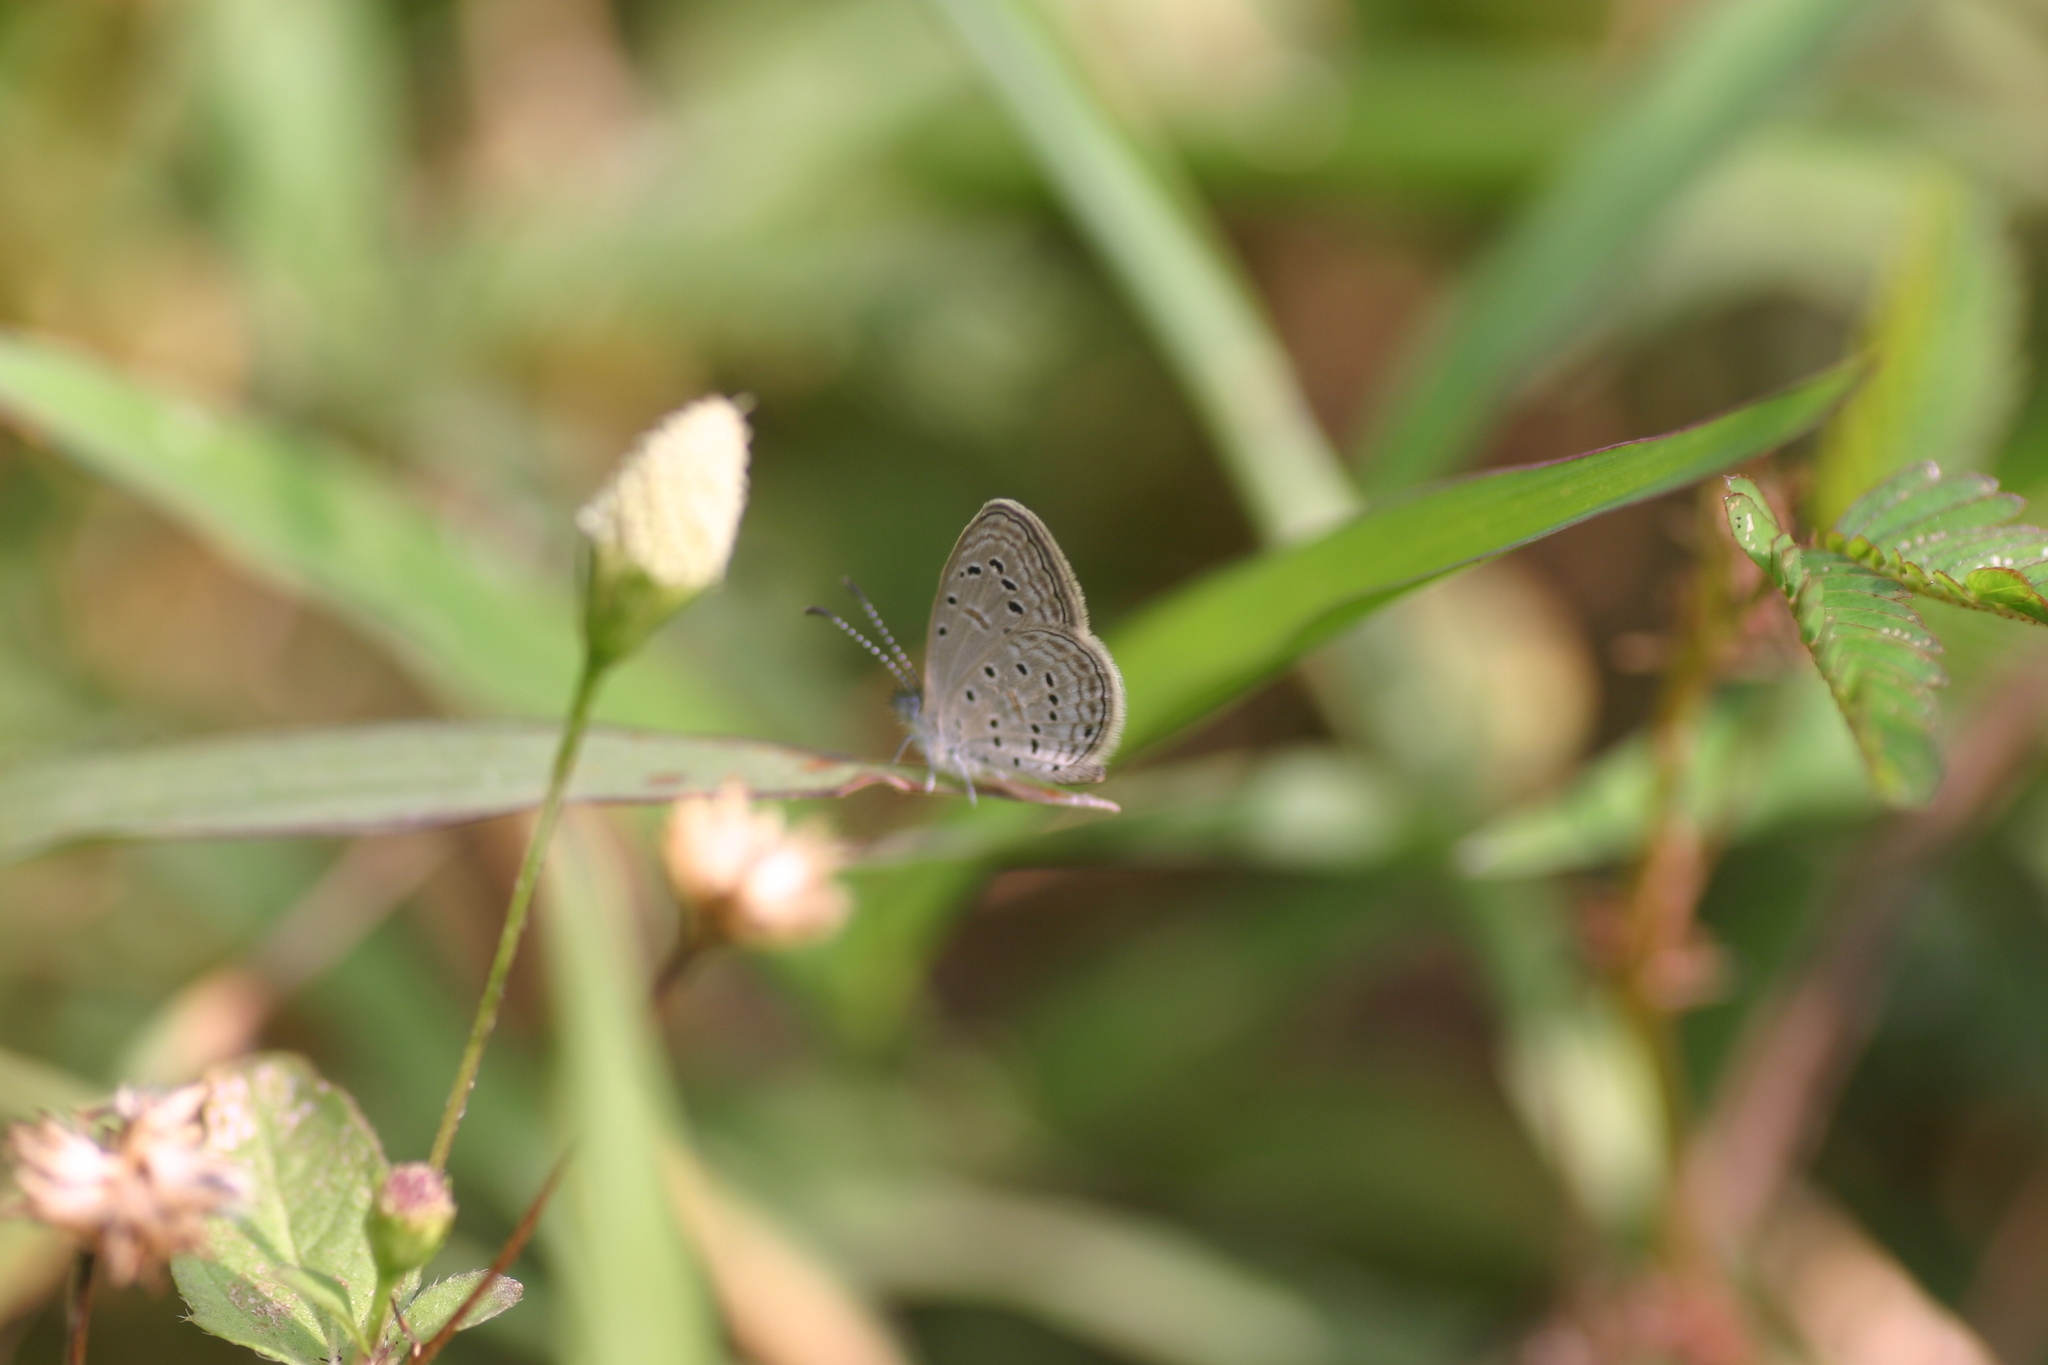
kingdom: Animalia
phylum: Arthropoda
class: Insecta
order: Lepidoptera
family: Lycaenidae
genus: Zizula
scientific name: Zizula hylax
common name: Gaika blue
